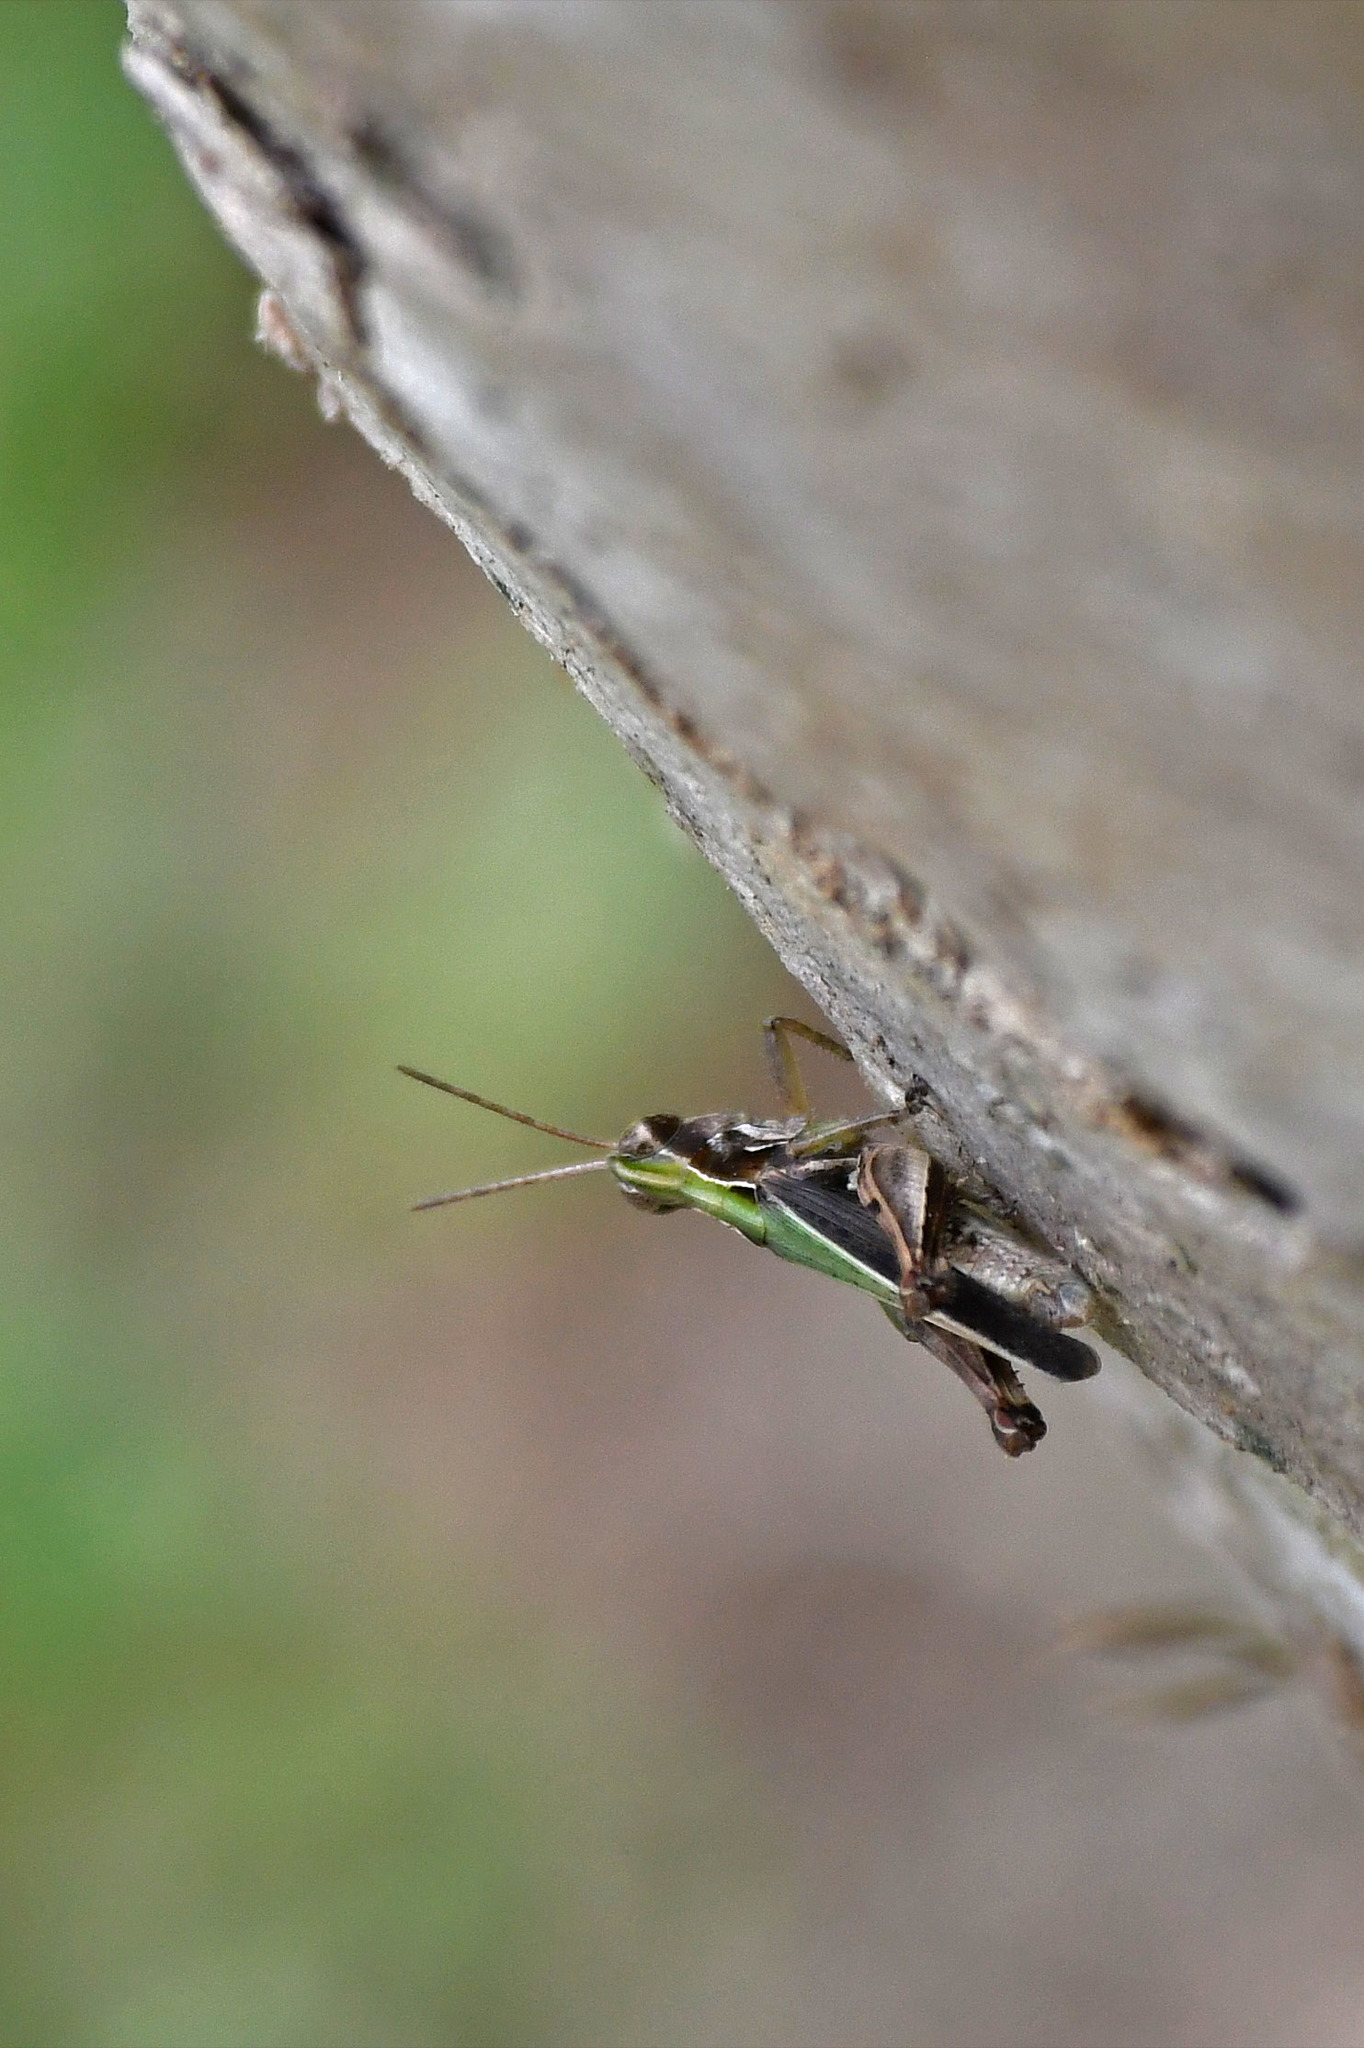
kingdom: Animalia
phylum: Arthropoda
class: Insecta
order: Orthoptera
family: Acrididae
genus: Orphulella
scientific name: Orphulella punctata
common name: Slant-faced grasshopper
